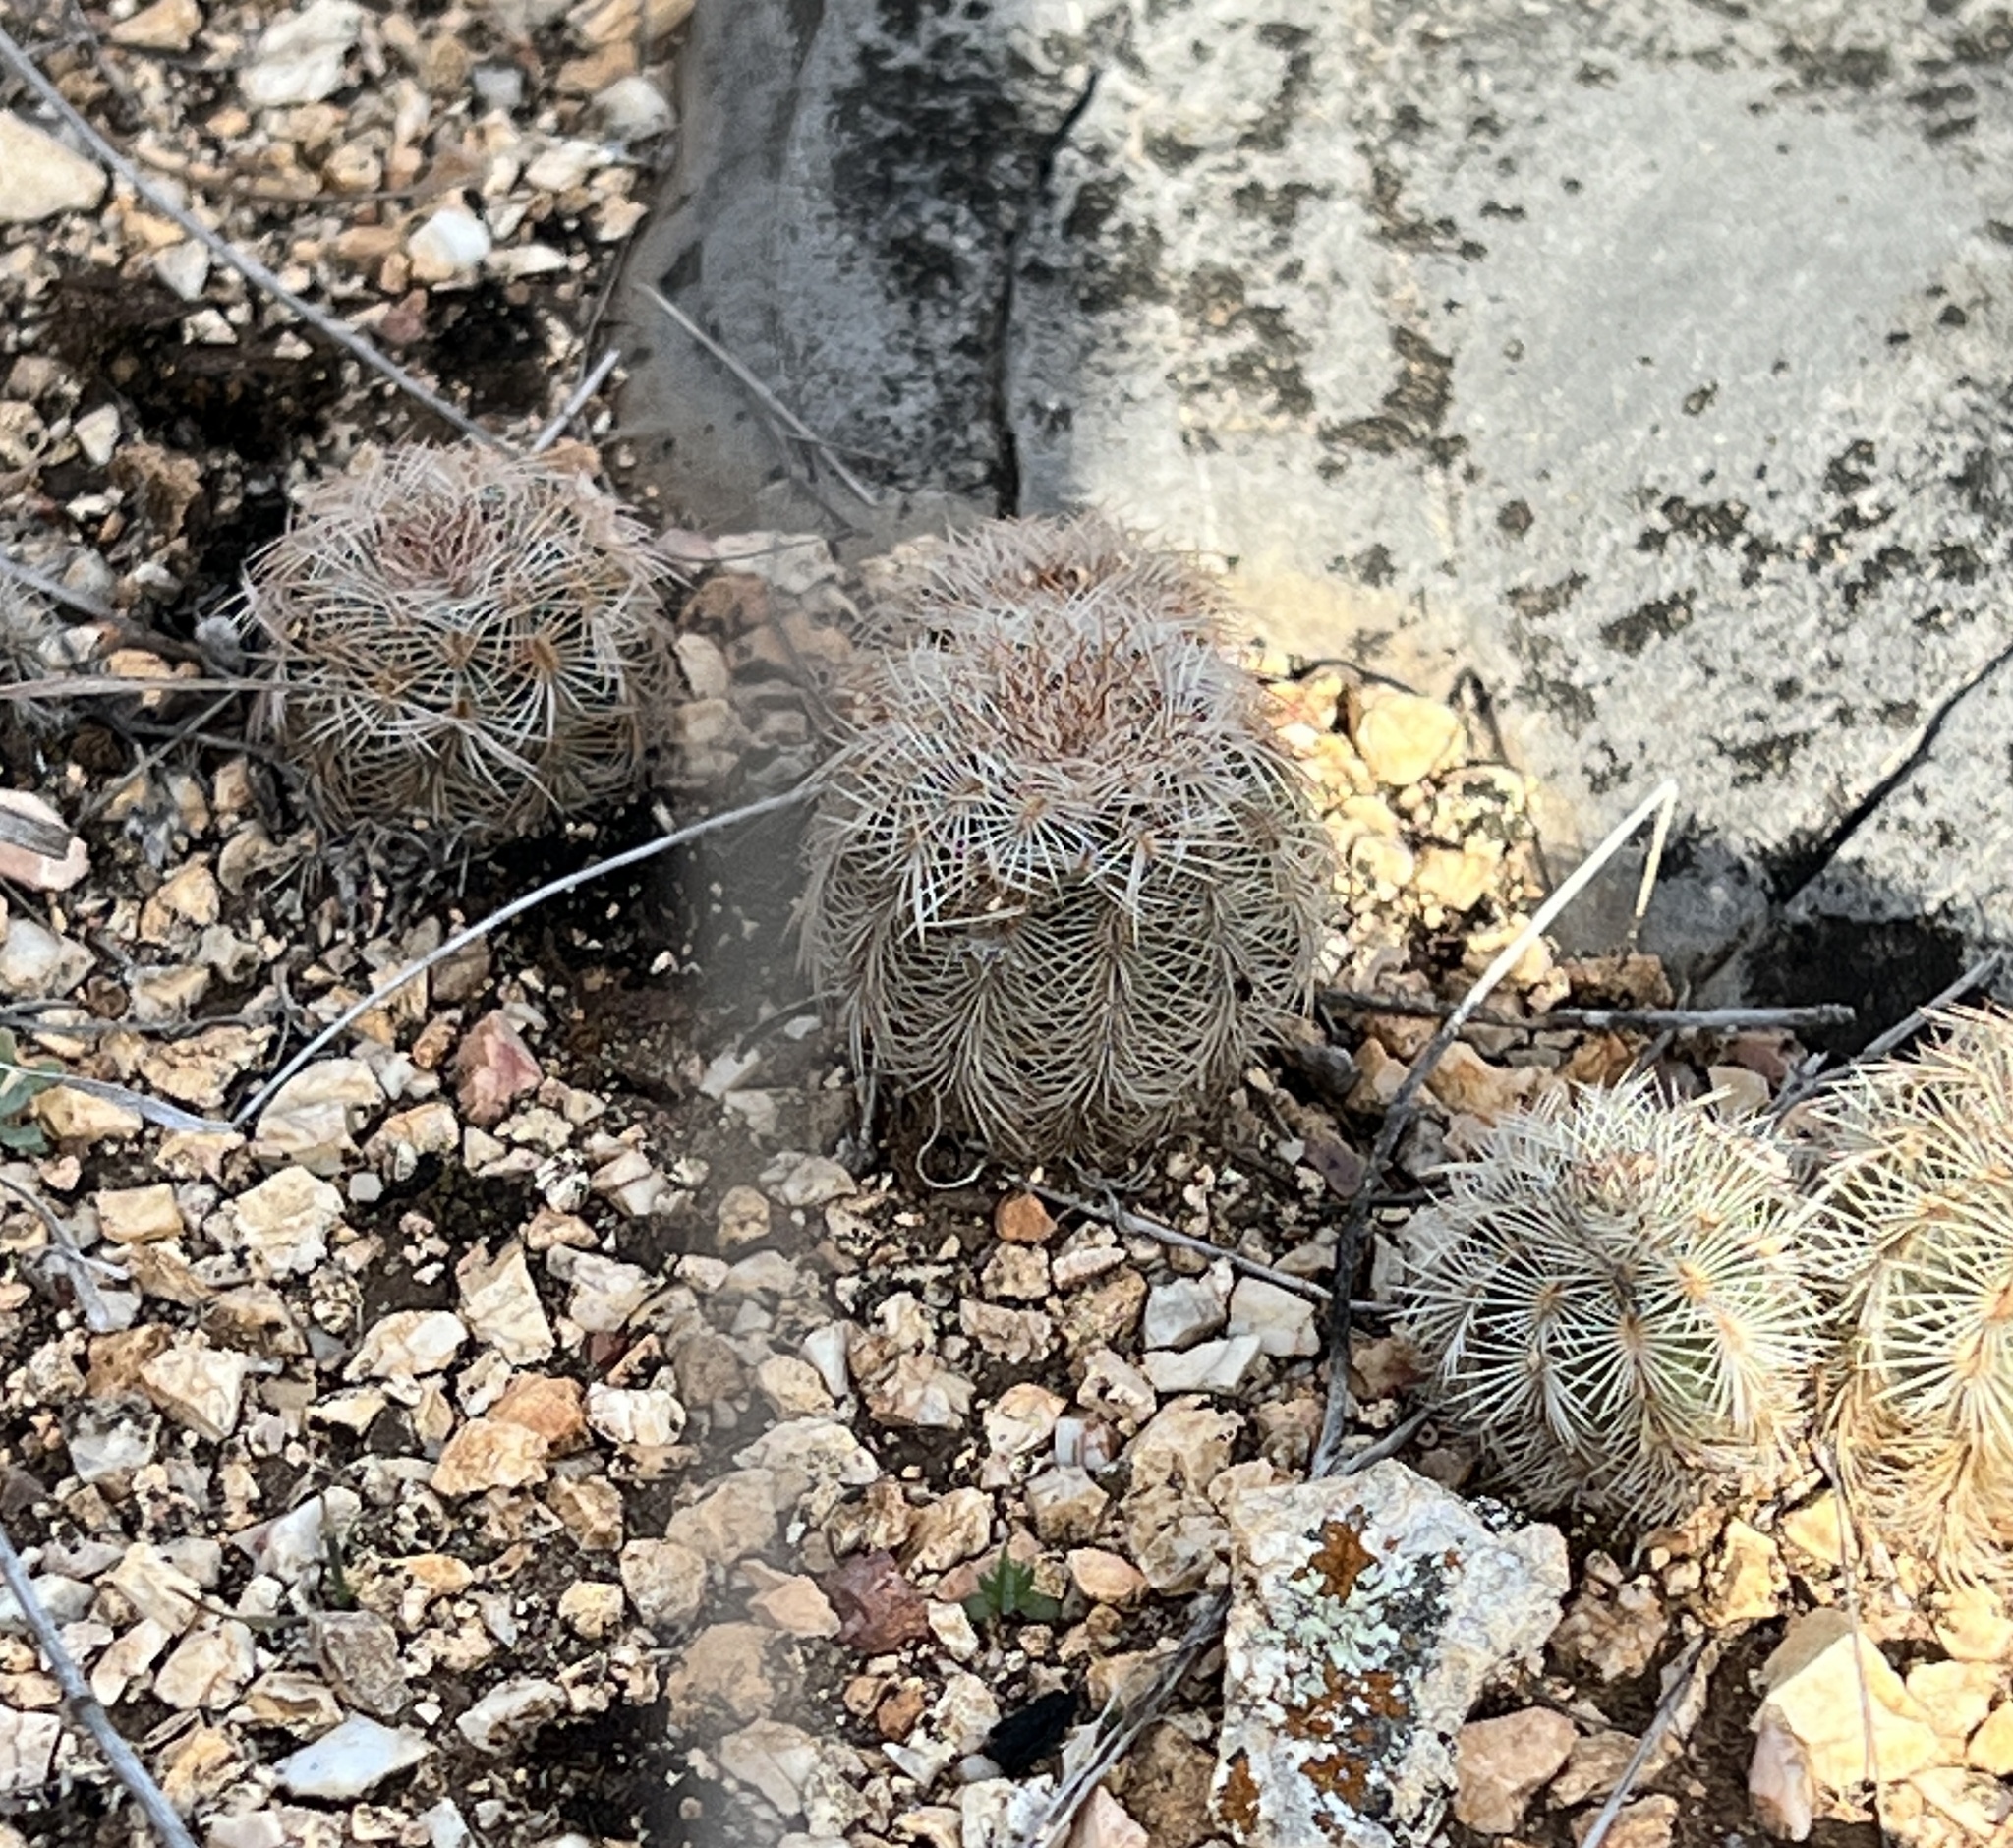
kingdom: Plantae
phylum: Tracheophyta
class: Magnoliopsida
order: Caryophyllales
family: Cactaceae
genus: Echinocereus
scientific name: Echinocereus reichenbachii
